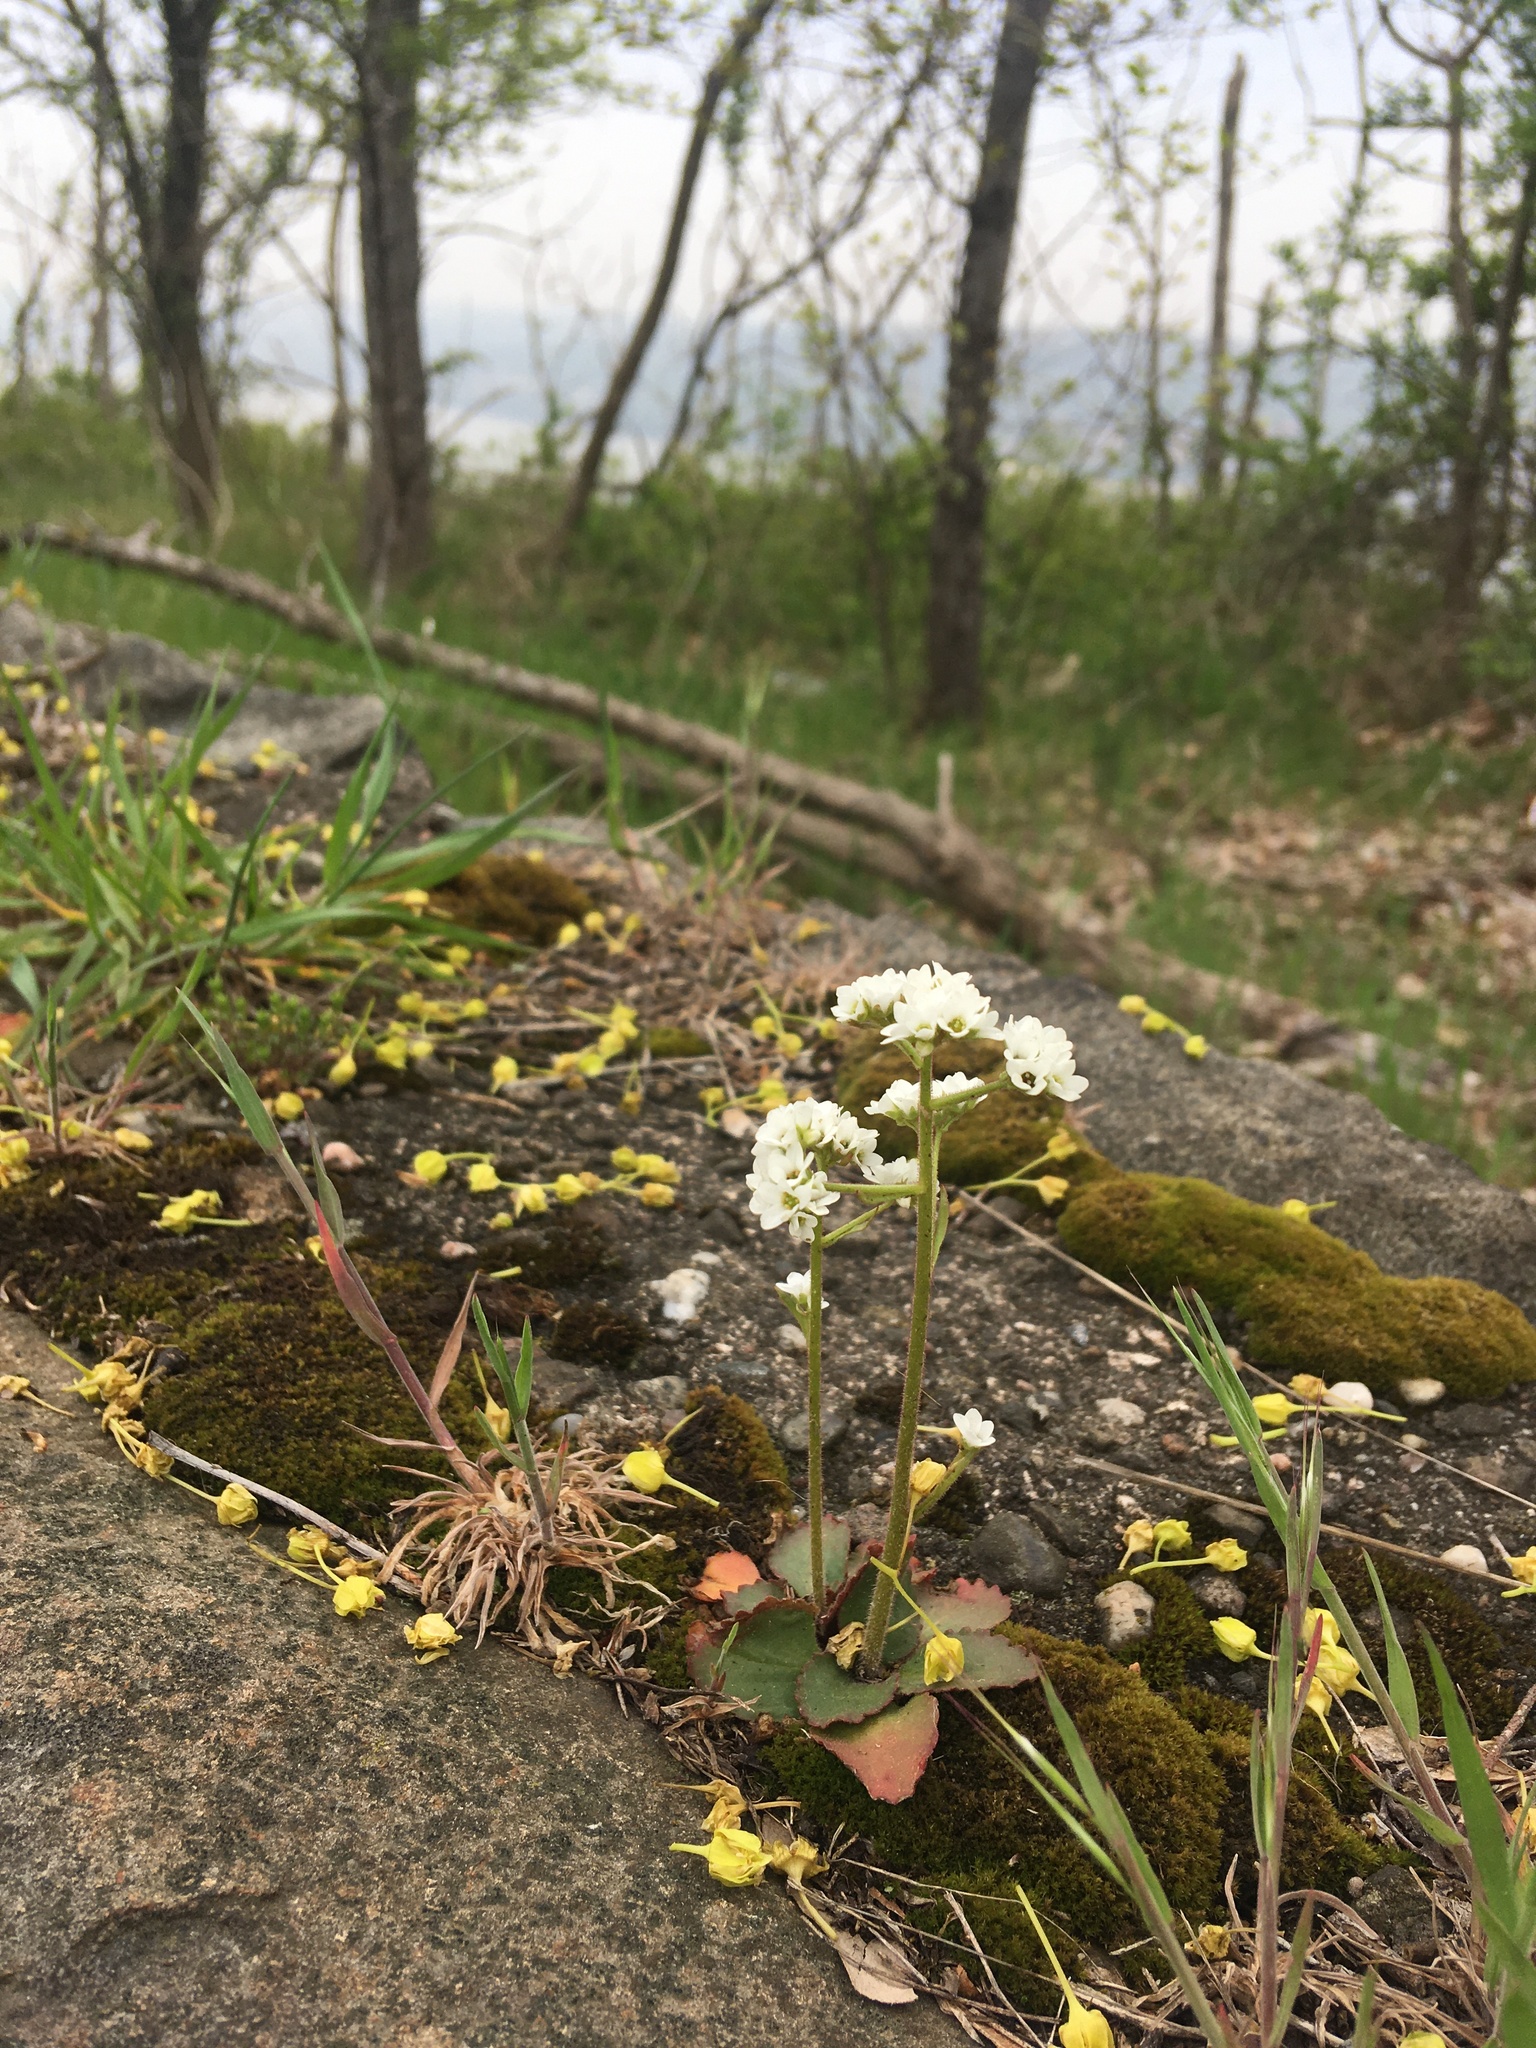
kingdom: Plantae
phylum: Tracheophyta
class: Magnoliopsida
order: Saxifragales
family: Saxifragaceae
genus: Micranthes
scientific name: Micranthes virginiensis
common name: Early saxifrage
